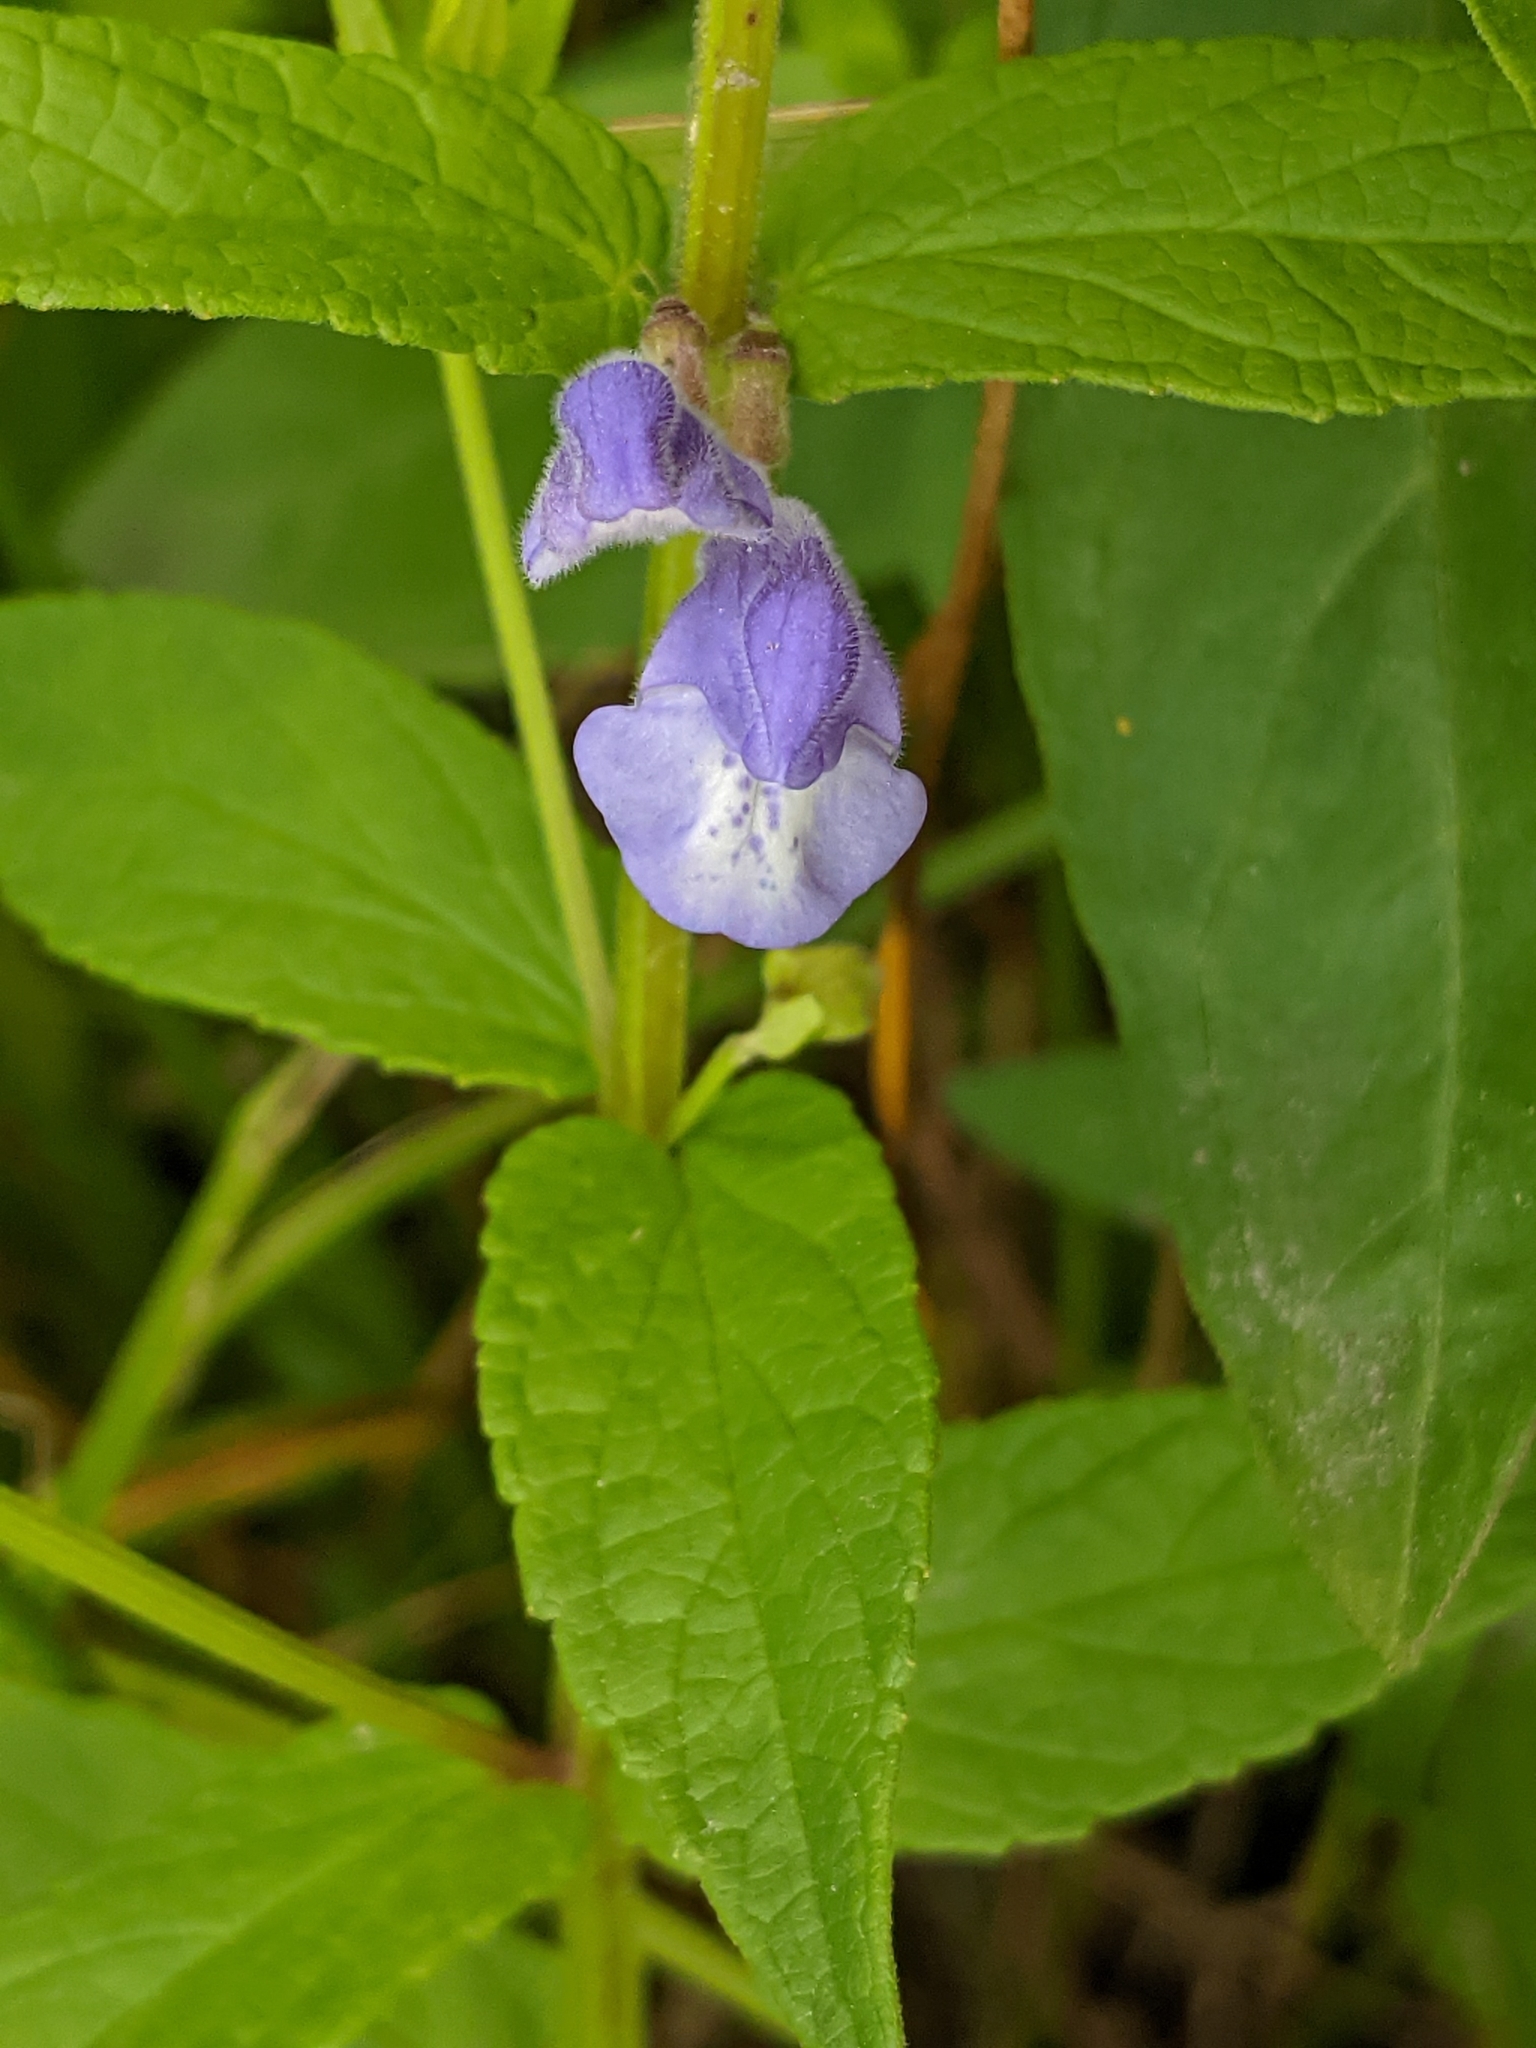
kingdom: Plantae
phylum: Tracheophyta
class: Magnoliopsida
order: Lamiales
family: Lamiaceae
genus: Scutellaria
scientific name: Scutellaria galericulata
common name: Skullcap
